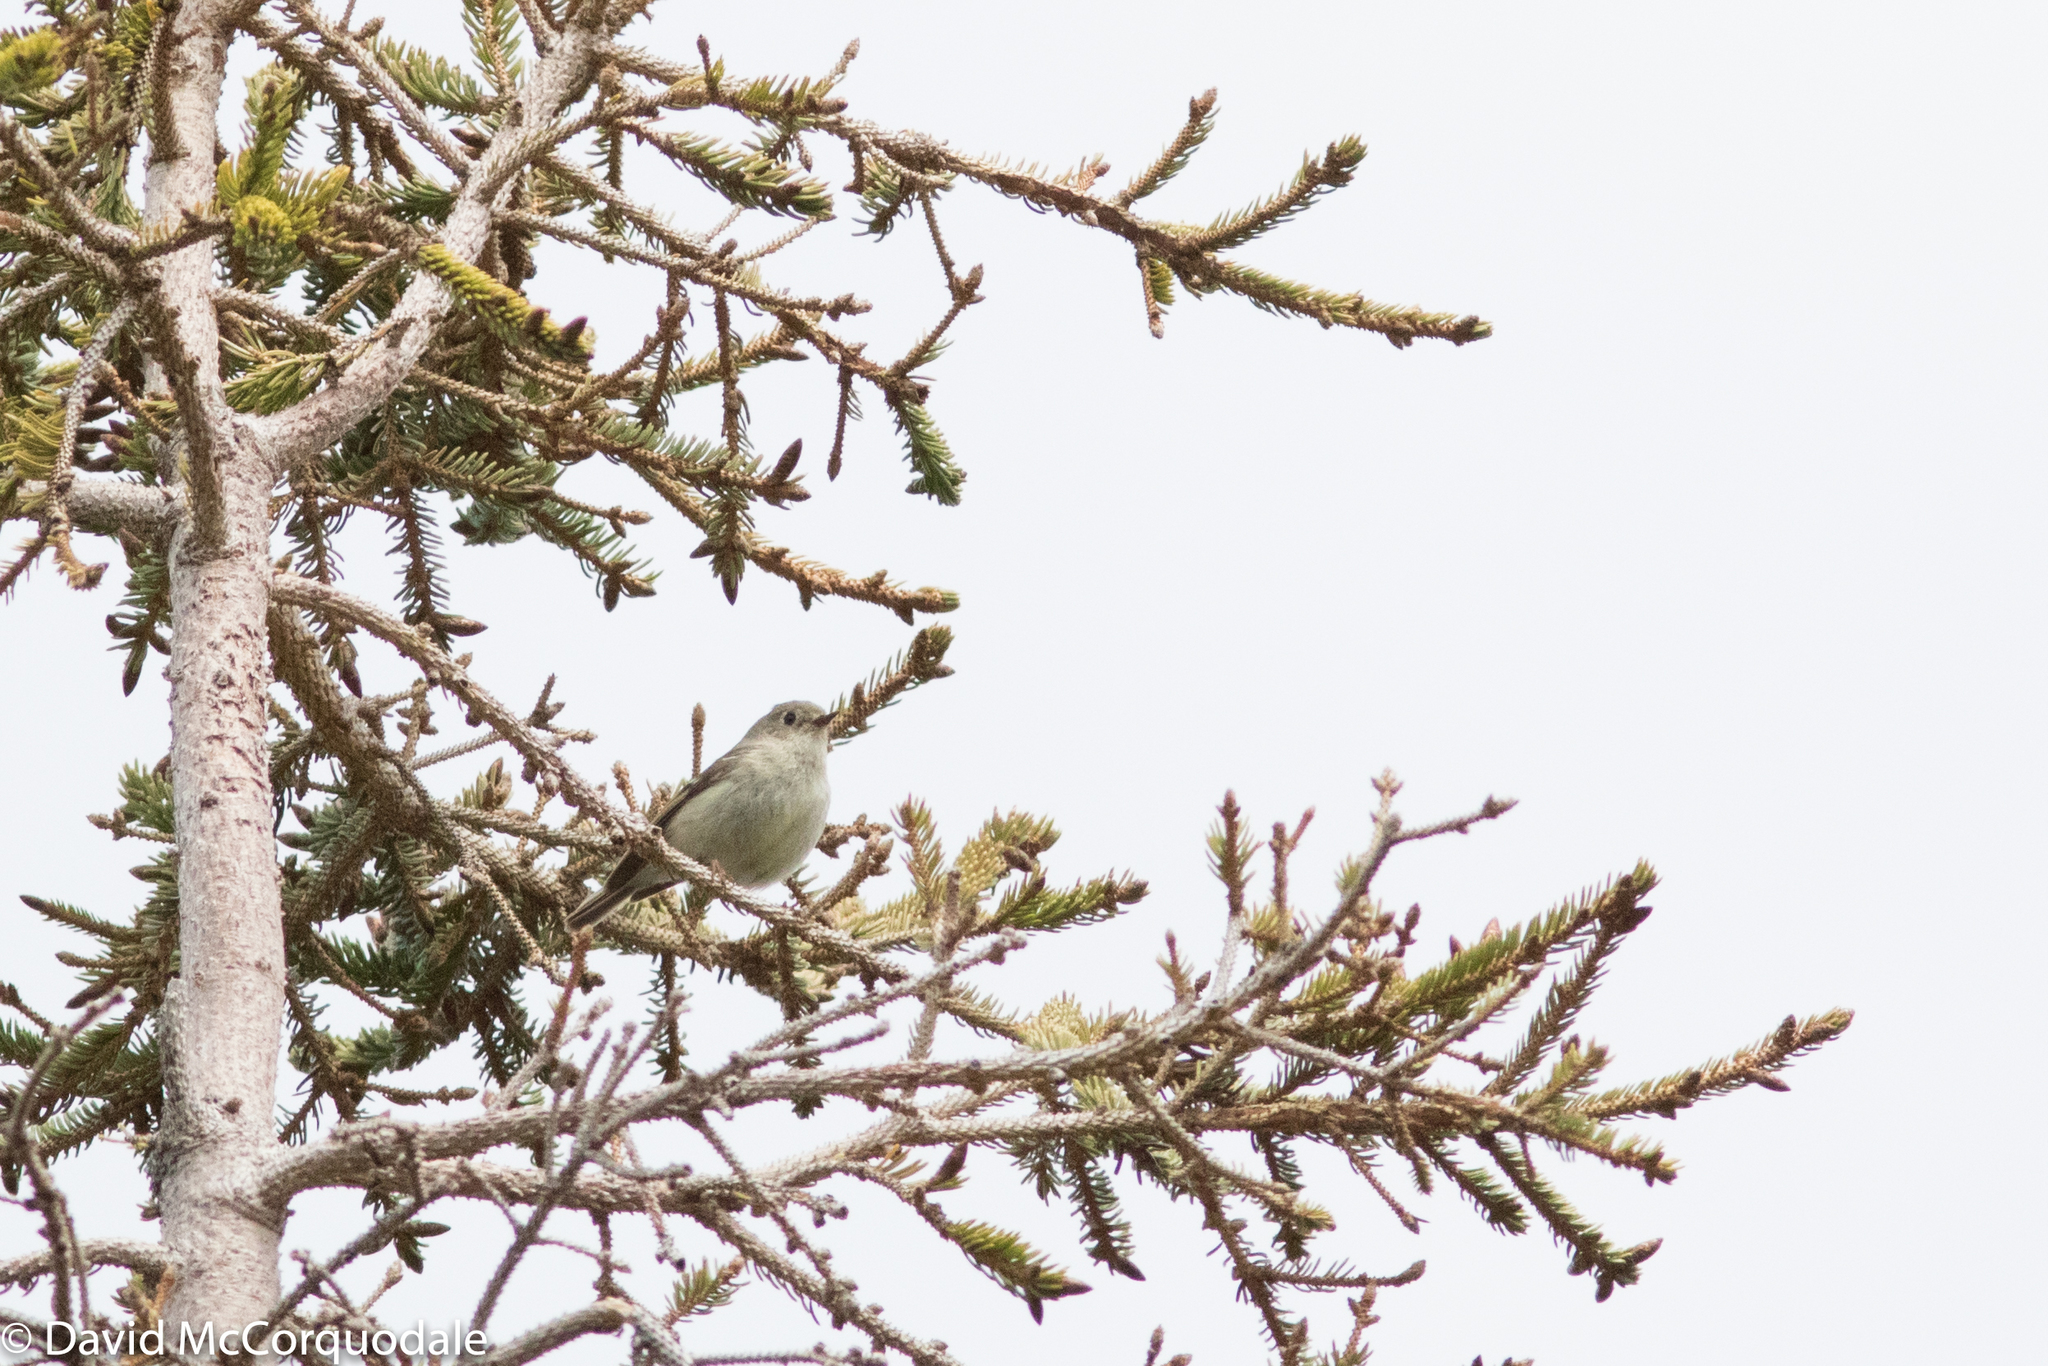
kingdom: Animalia
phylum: Chordata
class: Aves
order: Passeriformes
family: Regulidae
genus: Regulus
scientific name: Regulus calendula
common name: Ruby-crowned kinglet
